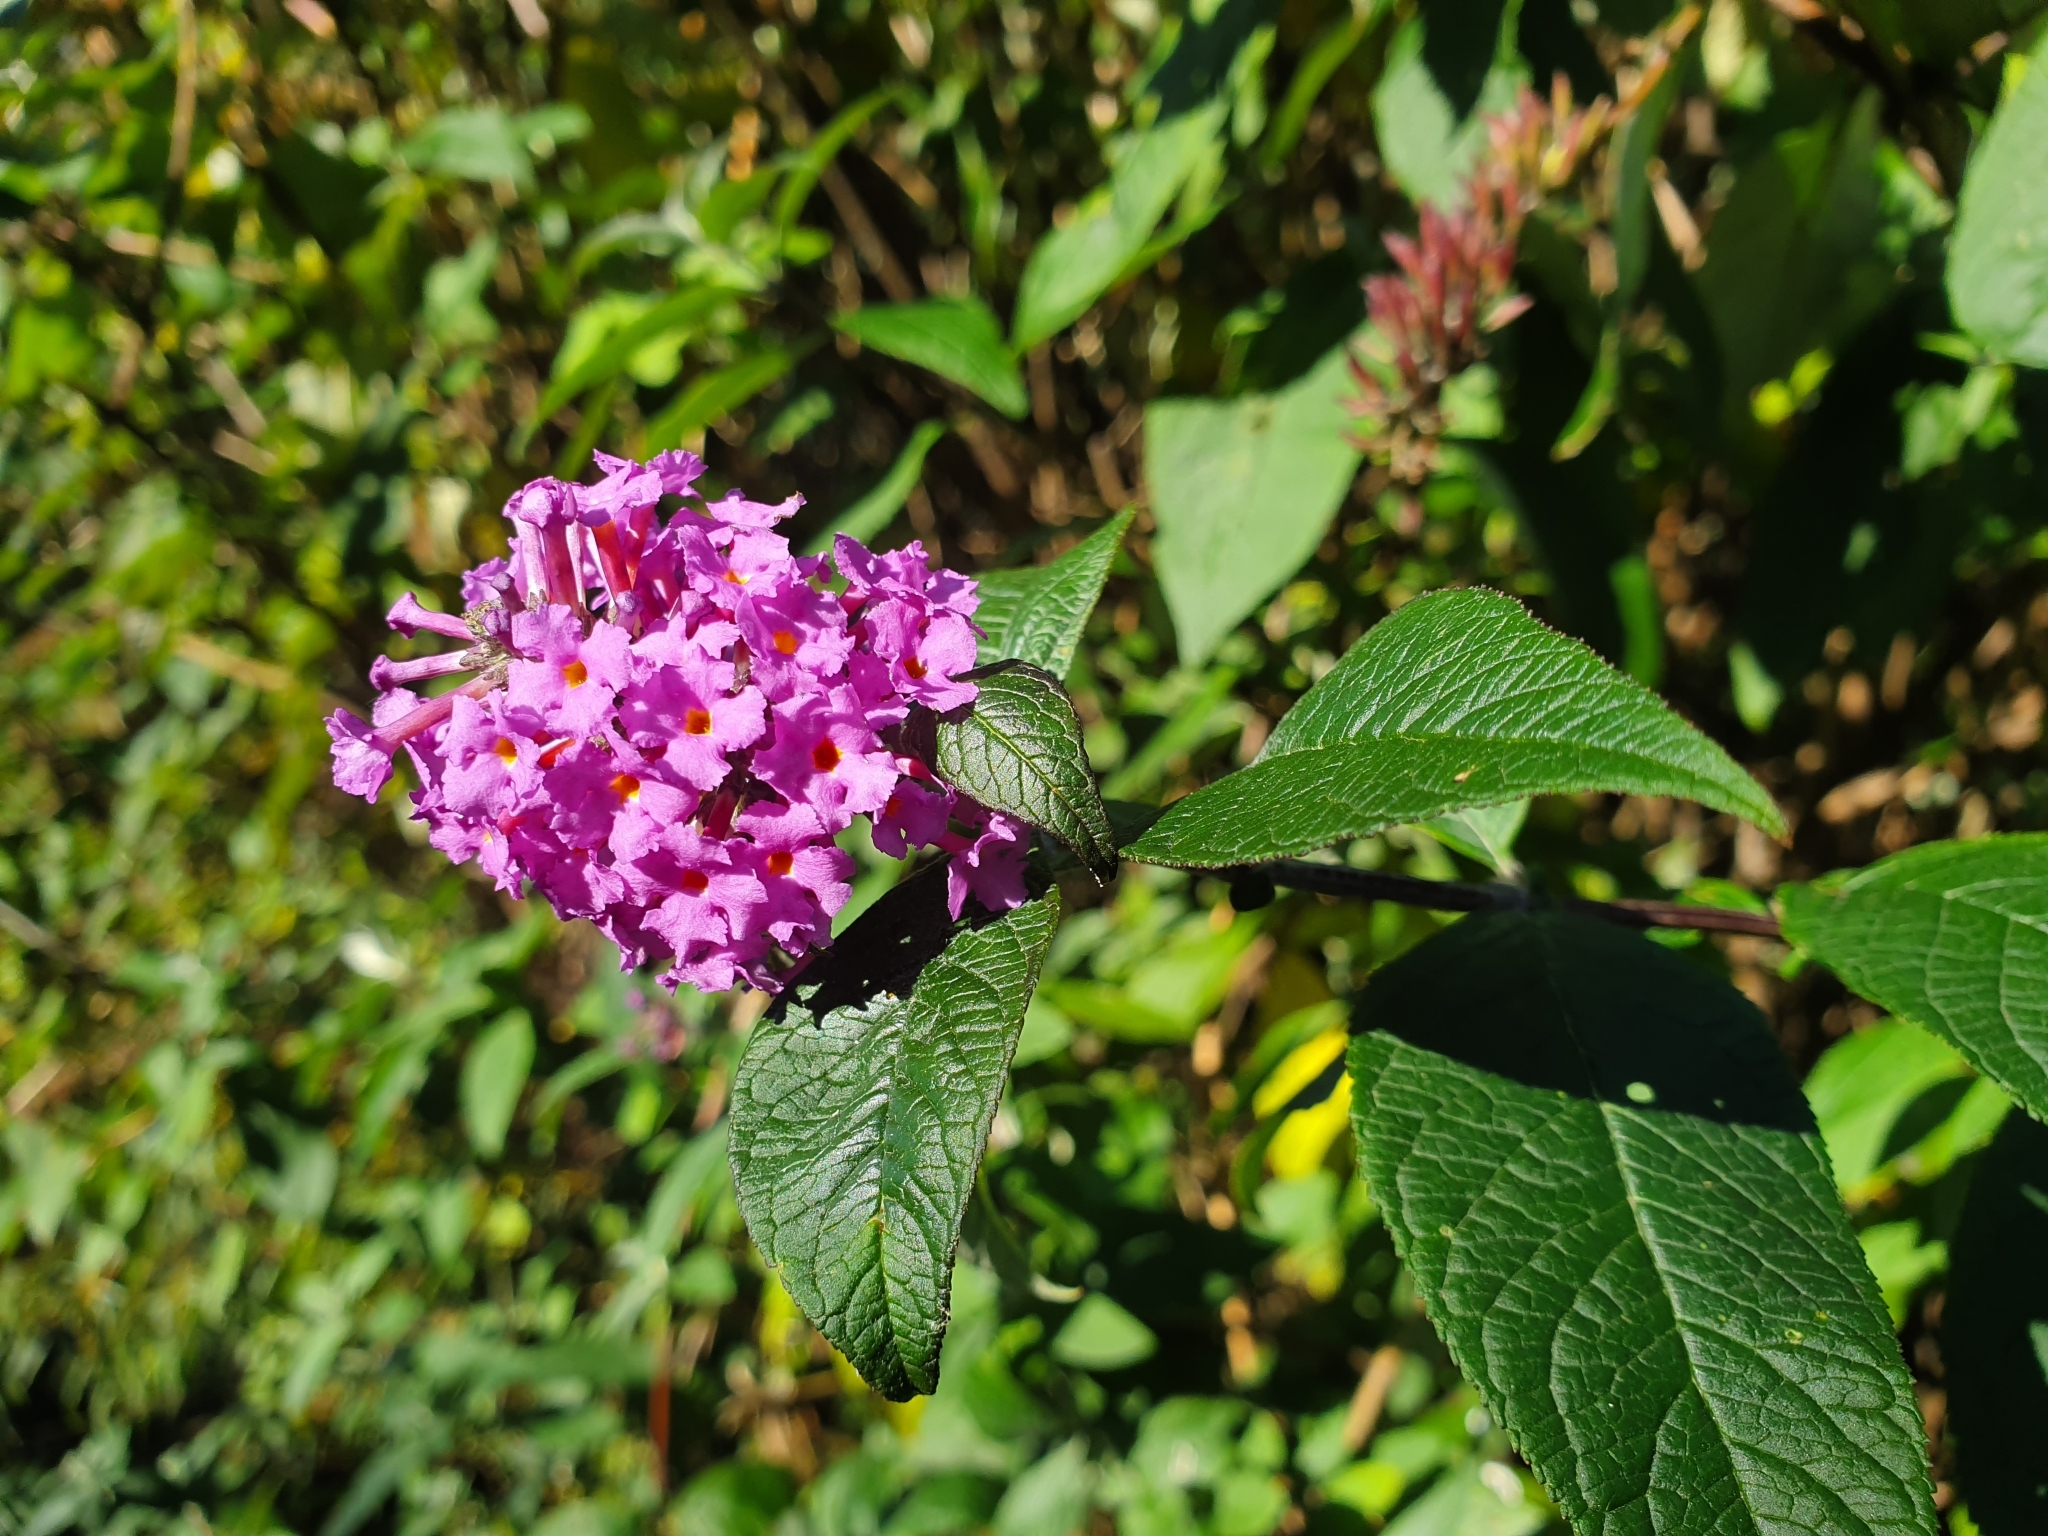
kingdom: Plantae
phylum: Tracheophyta
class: Magnoliopsida
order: Lamiales
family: Scrophulariaceae
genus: Buddleja
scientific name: Buddleja davidii
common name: Butterfly-bush
